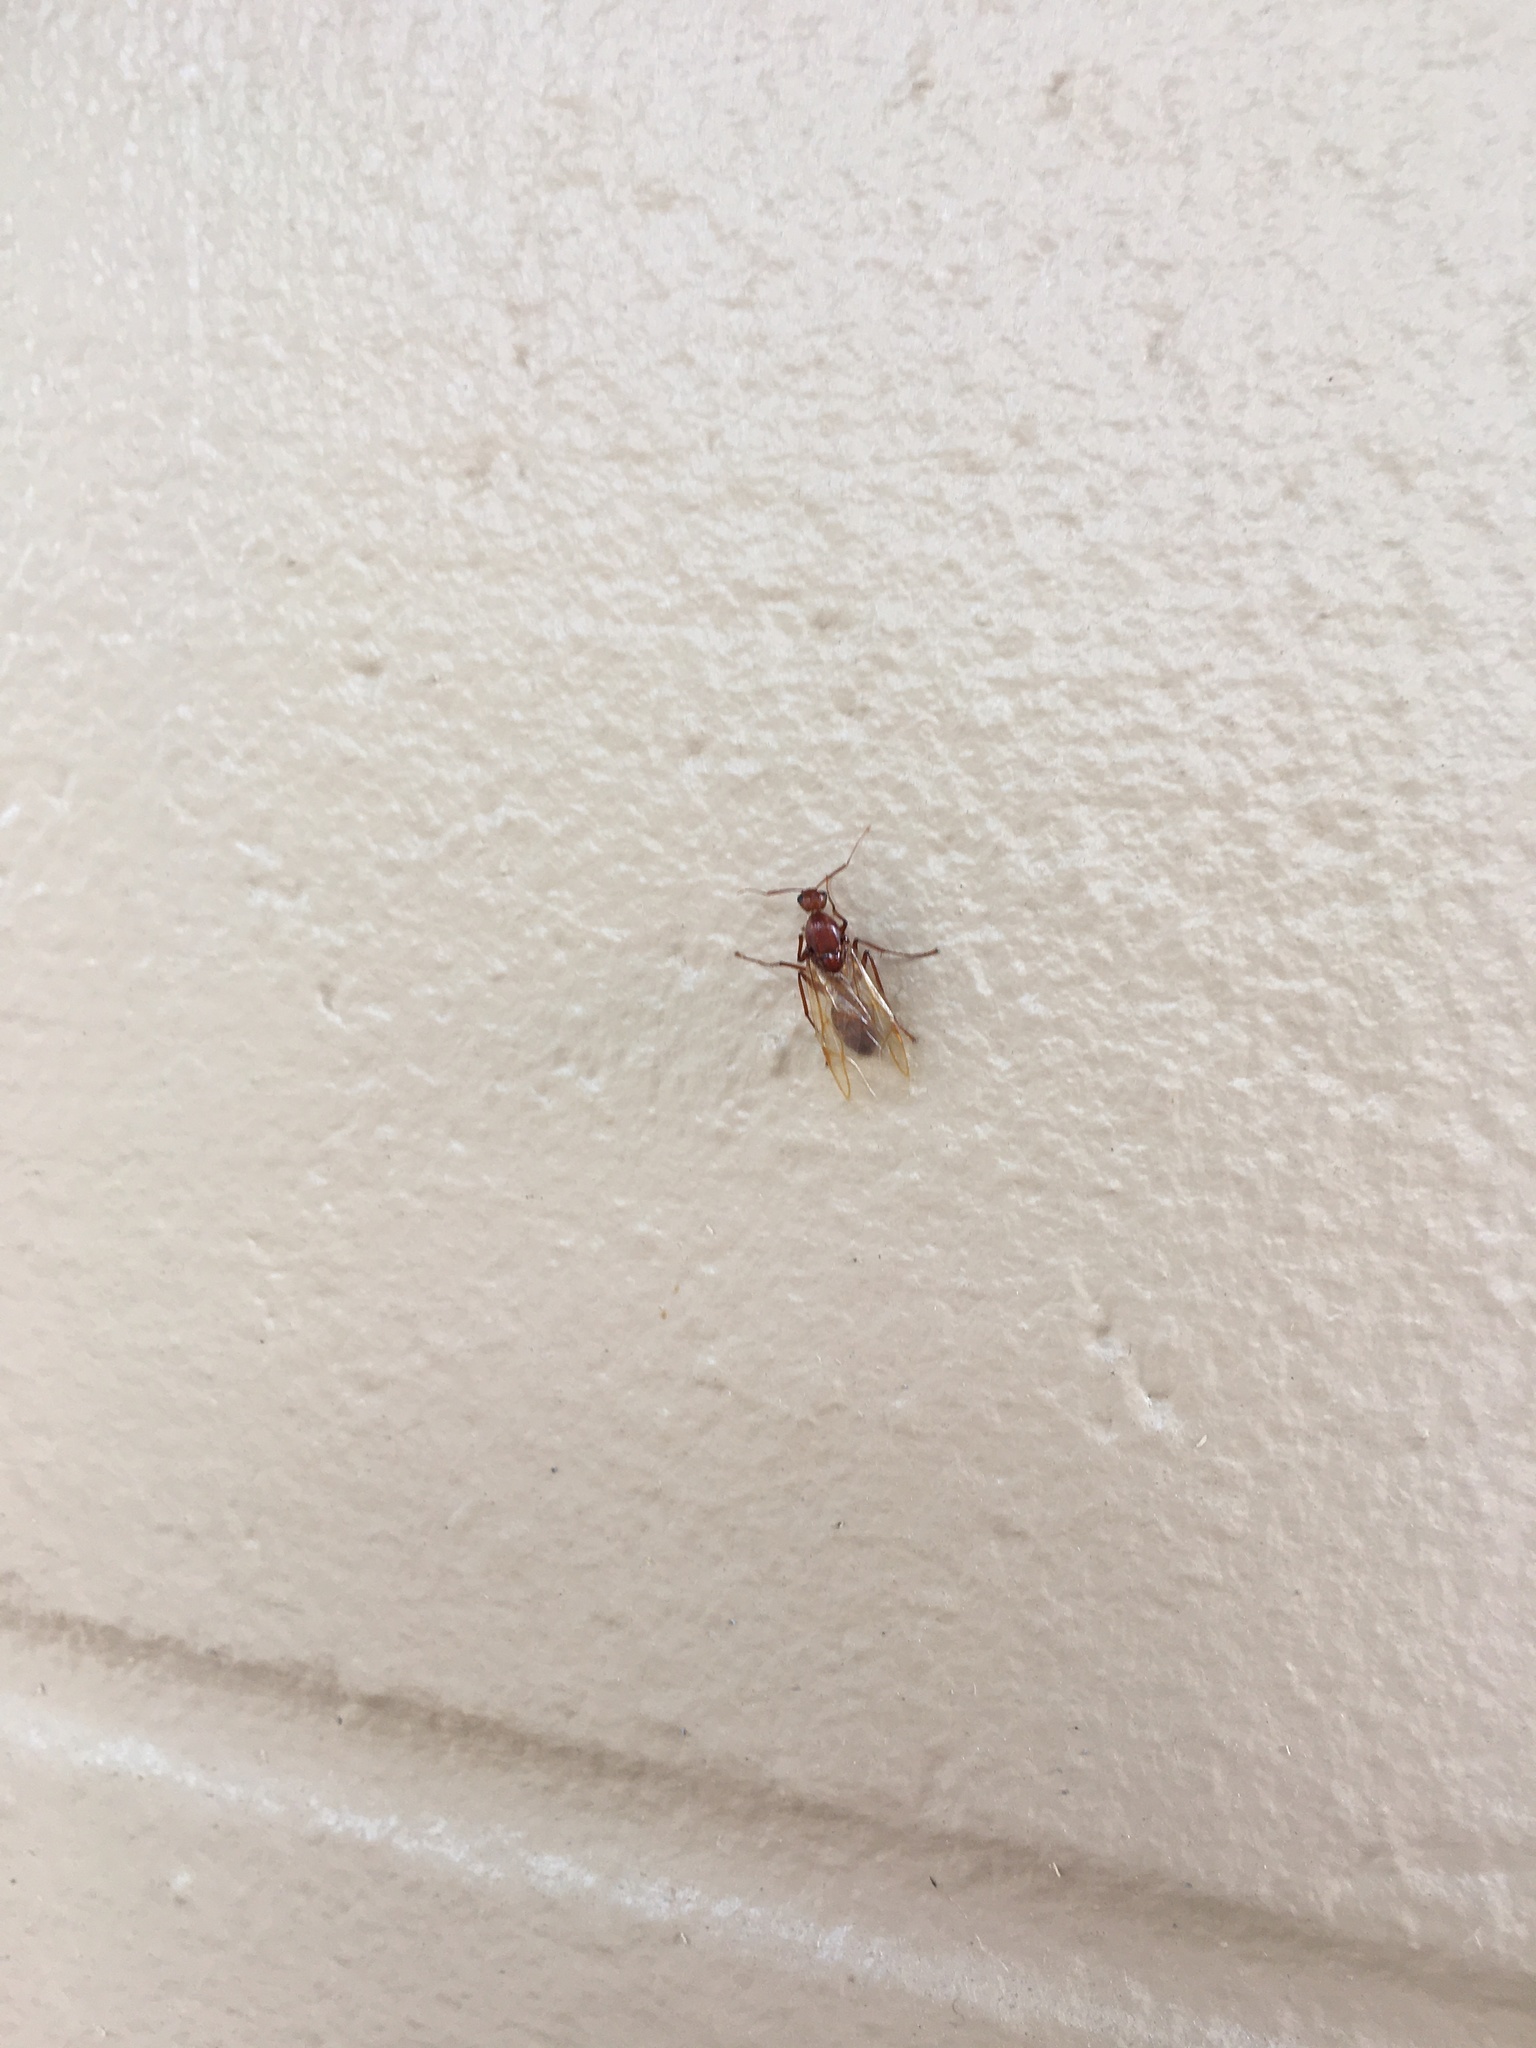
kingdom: Animalia
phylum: Arthropoda
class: Insecta
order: Hymenoptera
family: Formicidae
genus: Camponotus
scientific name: Camponotus castaneus
